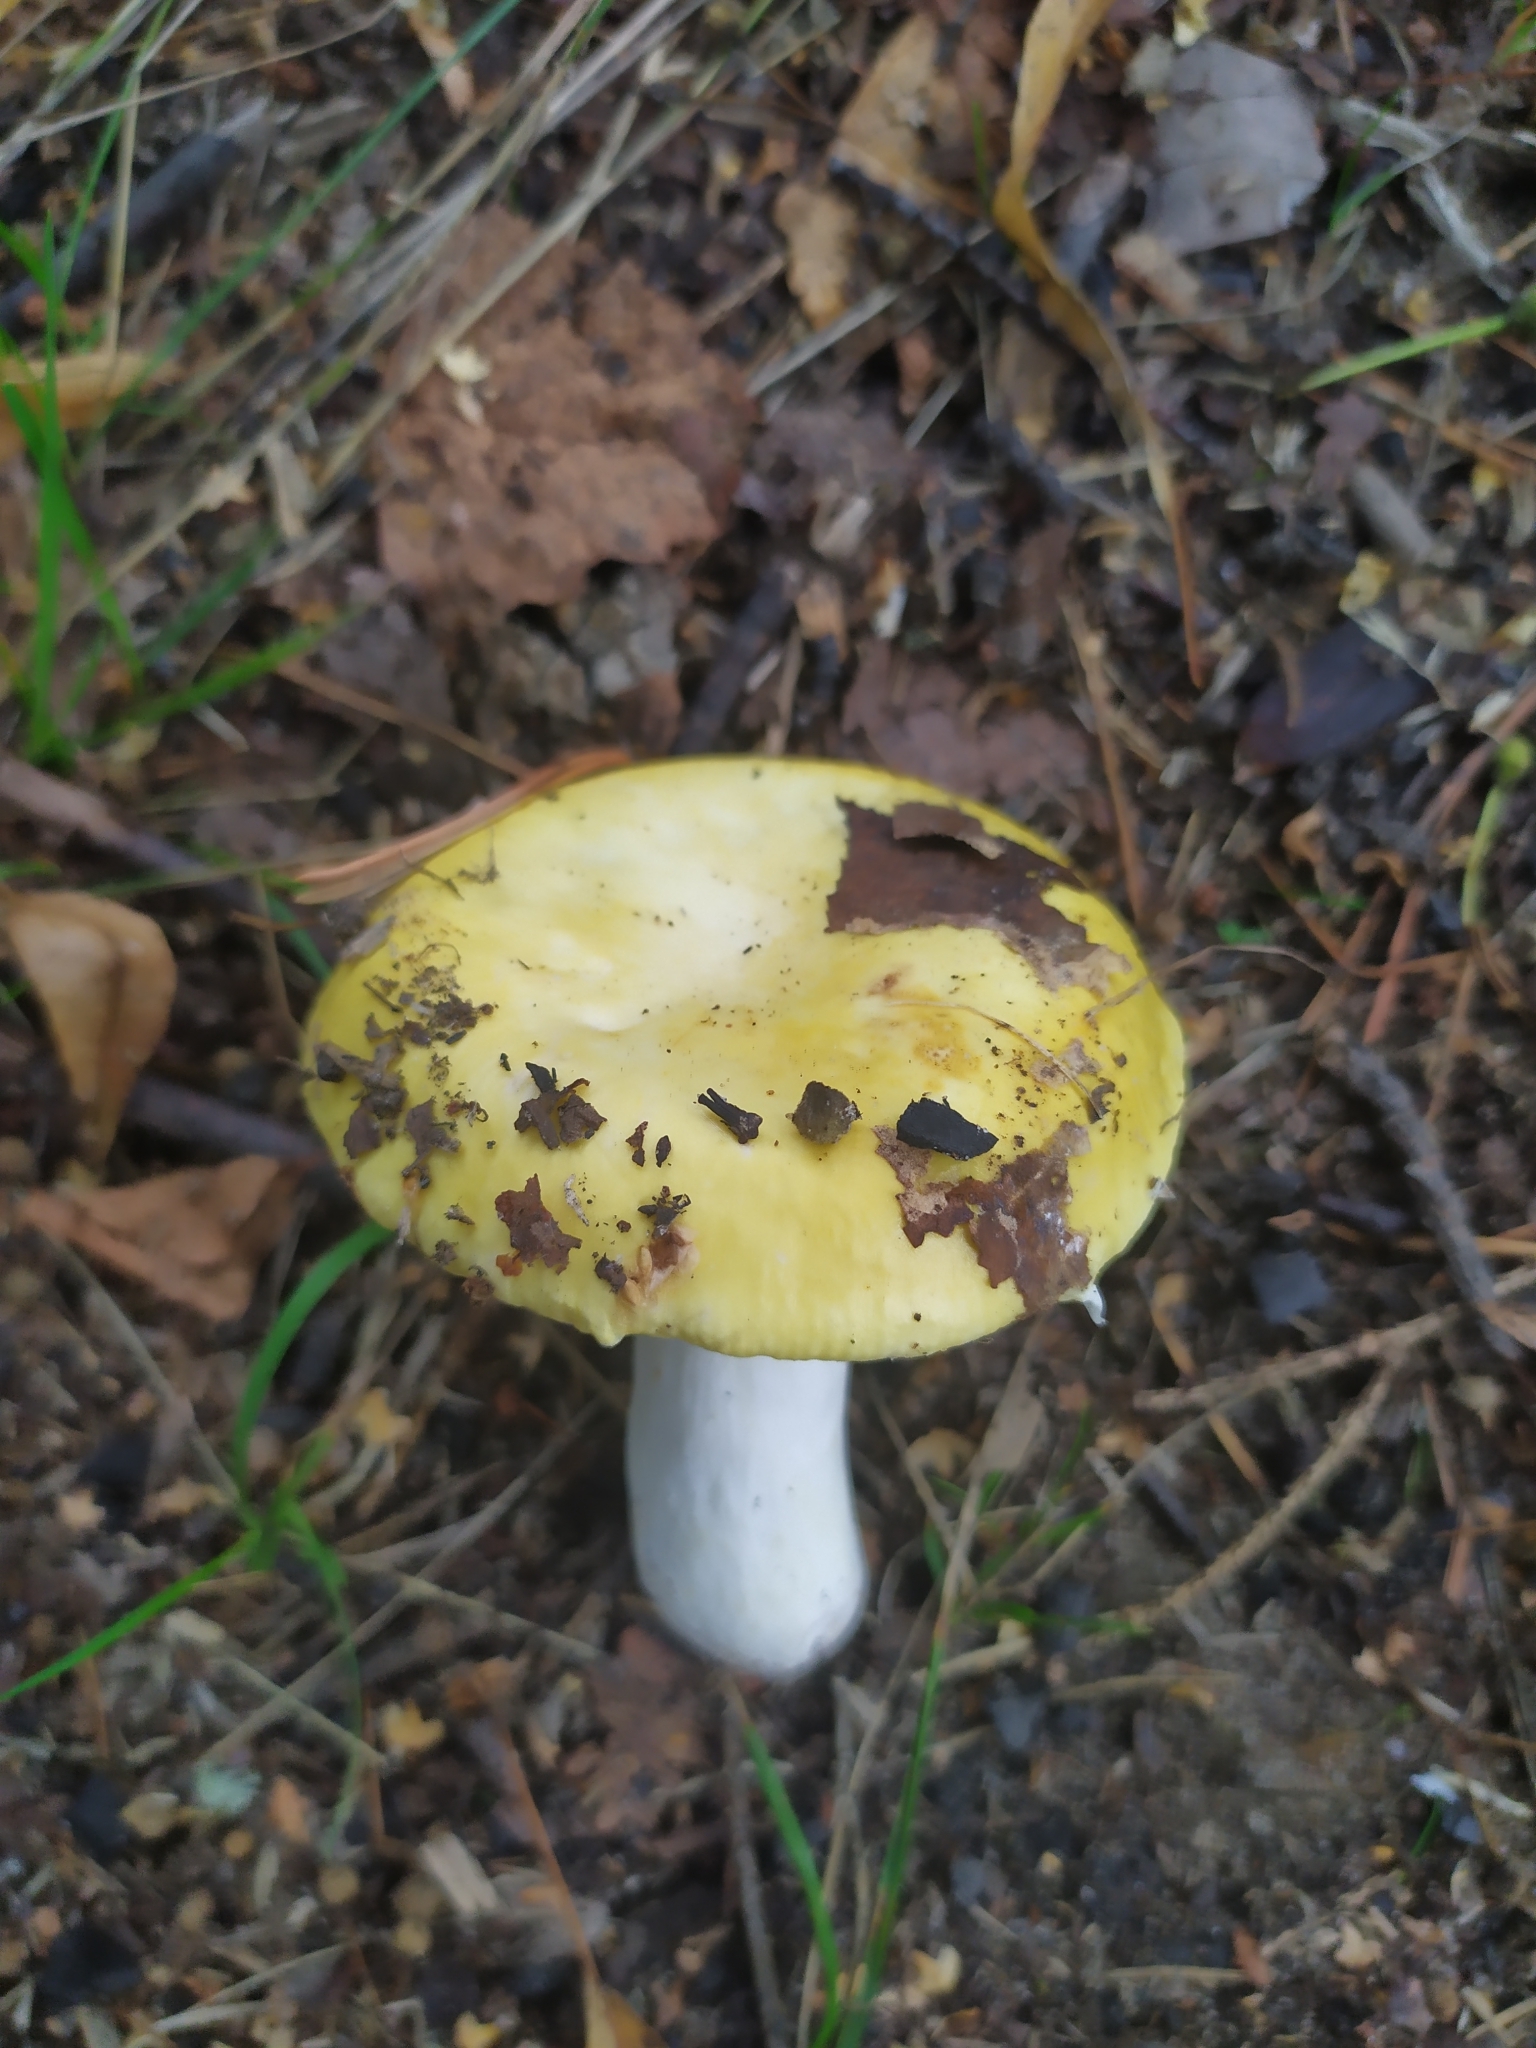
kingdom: Fungi
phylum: Basidiomycota
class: Agaricomycetes
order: Russulales
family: Russulaceae
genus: Russula
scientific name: Russula claroflava
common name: The yellow swamp brittlegill
